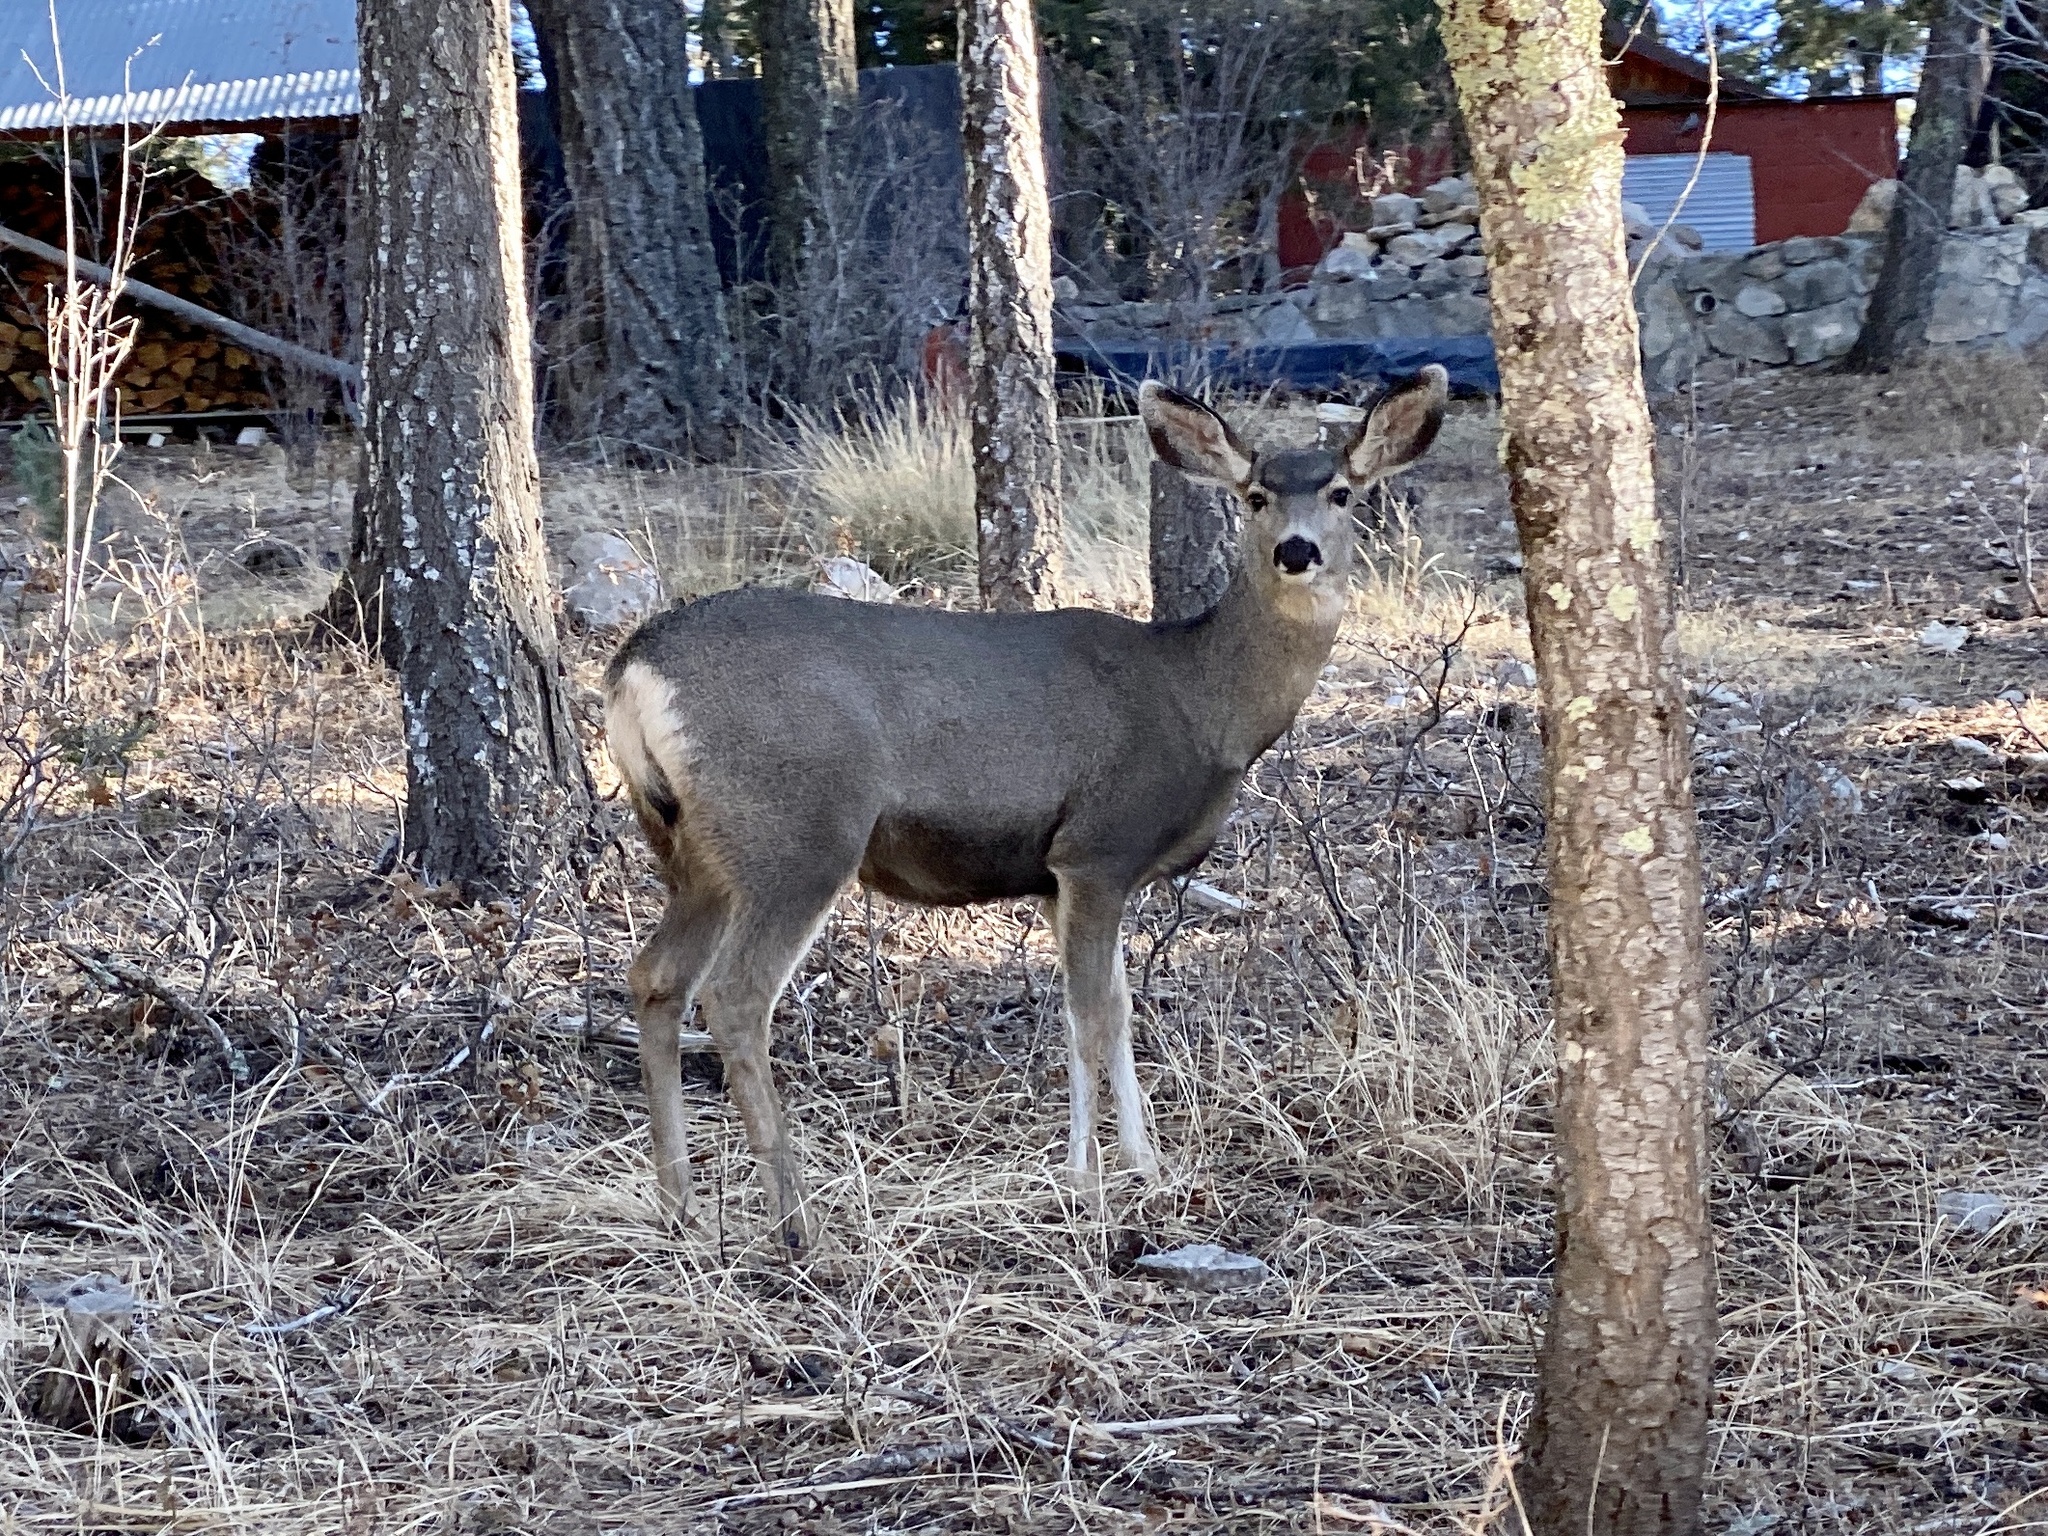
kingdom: Animalia
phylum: Chordata
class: Mammalia
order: Artiodactyla
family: Cervidae
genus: Odocoileus
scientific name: Odocoileus hemionus
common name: Mule deer
